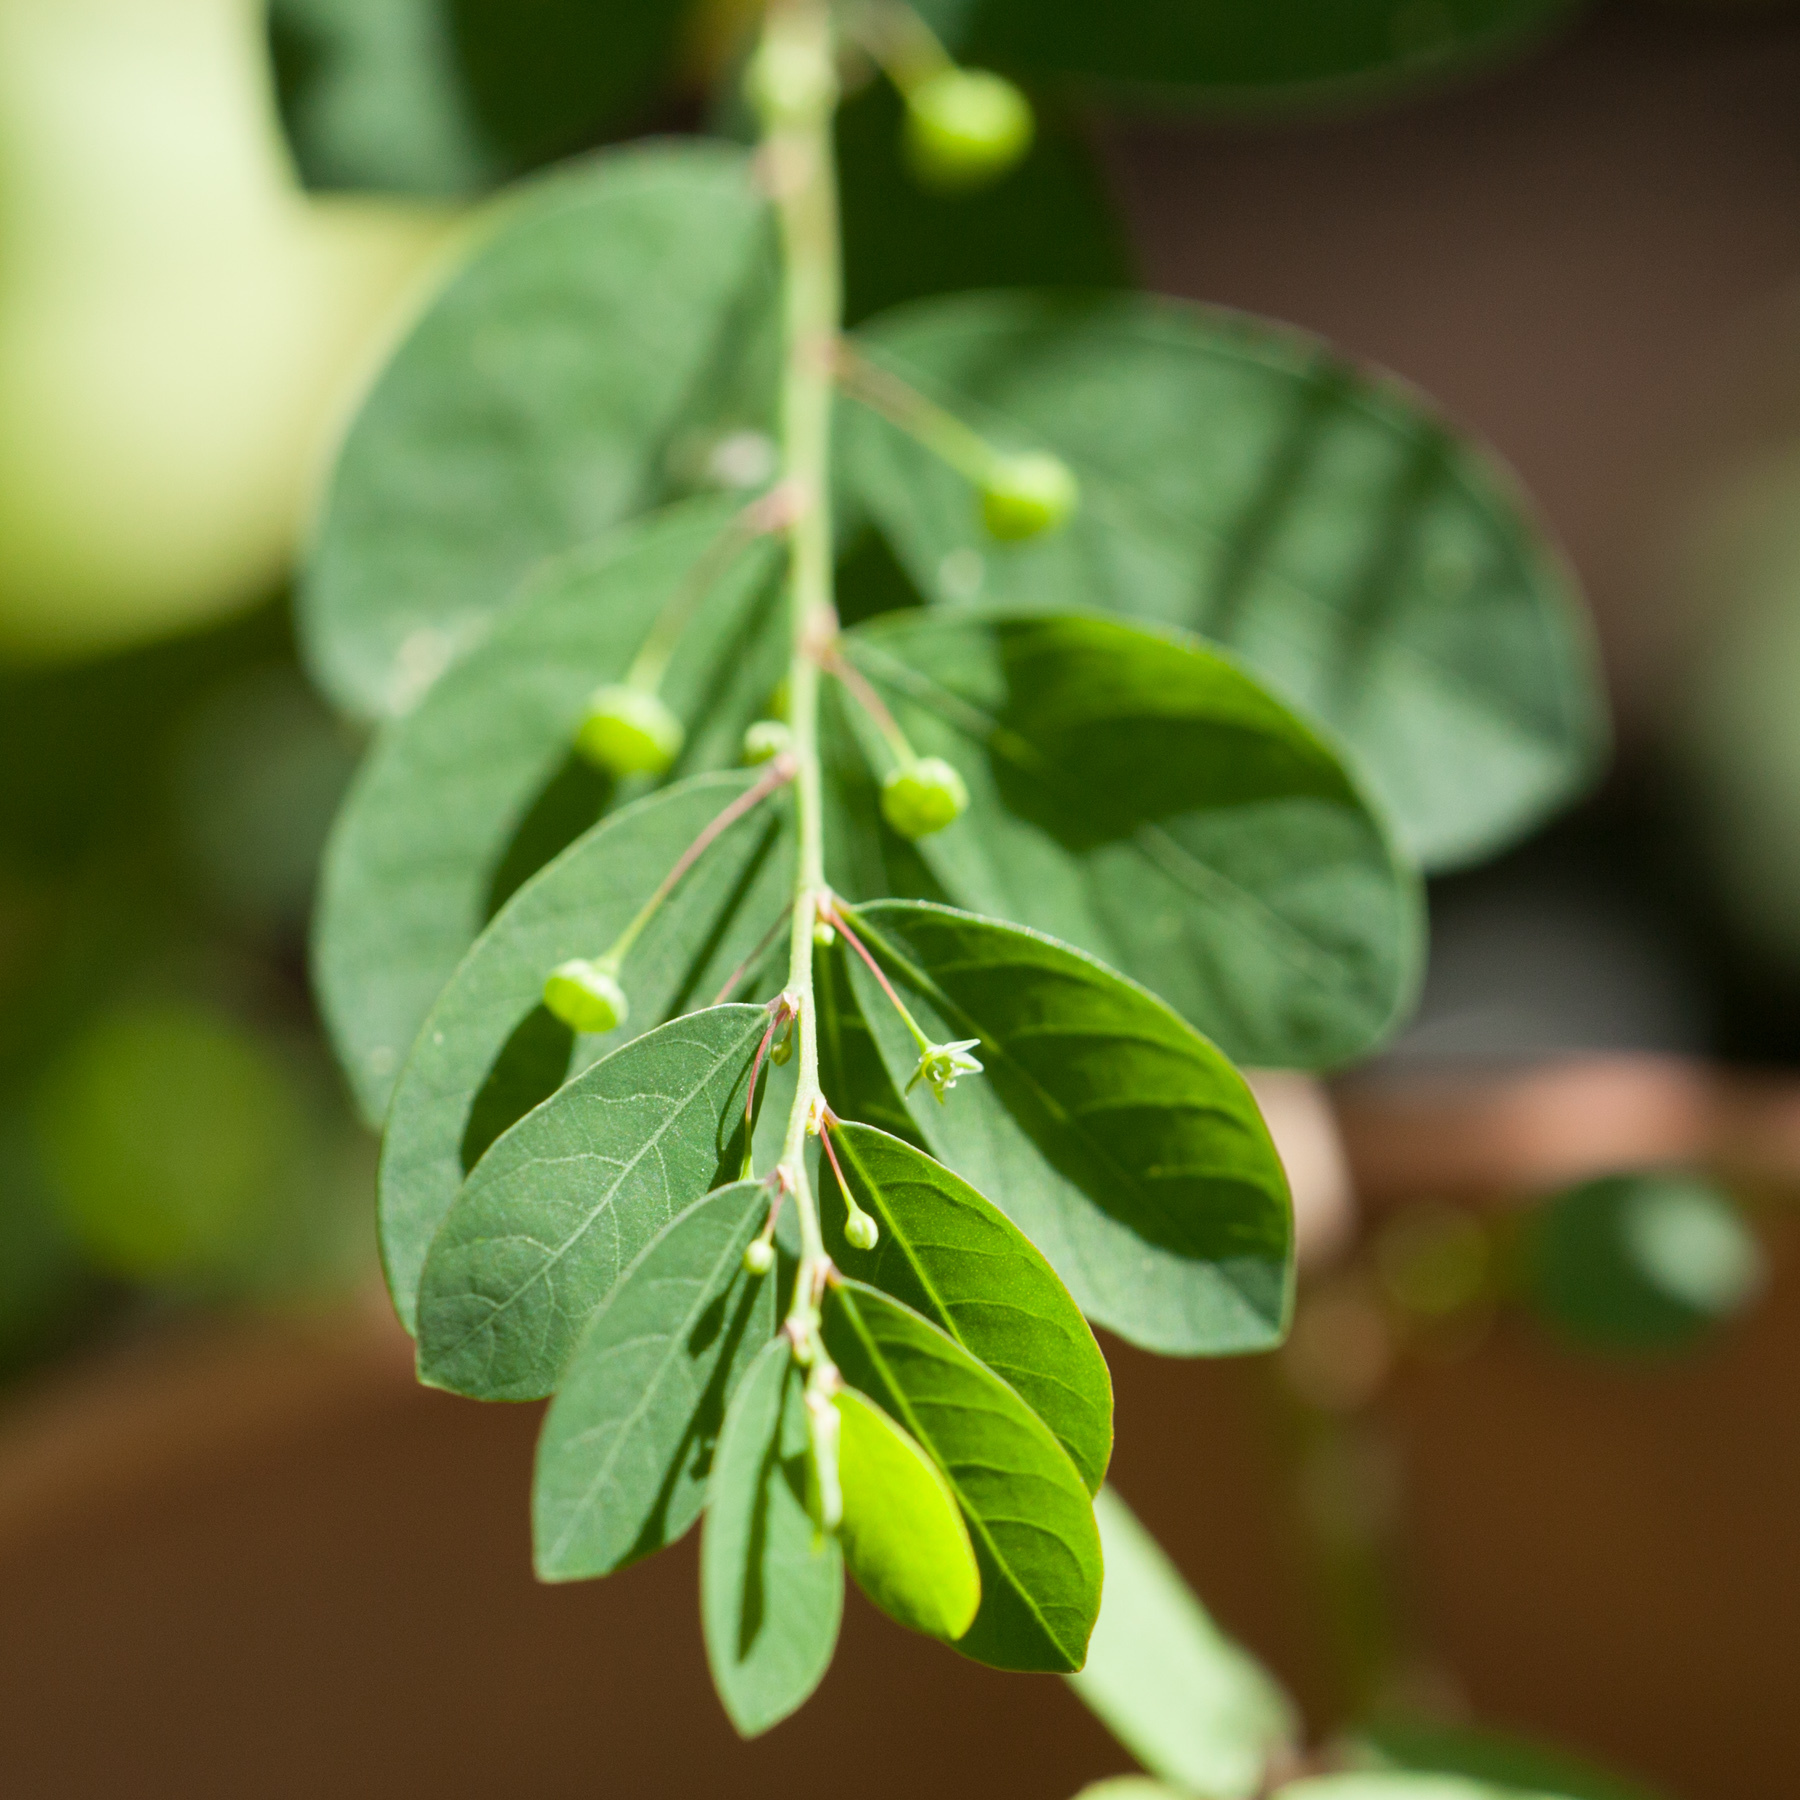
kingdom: Plantae
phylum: Tracheophyta
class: Magnoliopsida
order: Malpighiales
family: Phyllanthaceae
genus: Phyllanthus
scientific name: Phyllanthus tenellus
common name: Mascarene island leaf-flower
